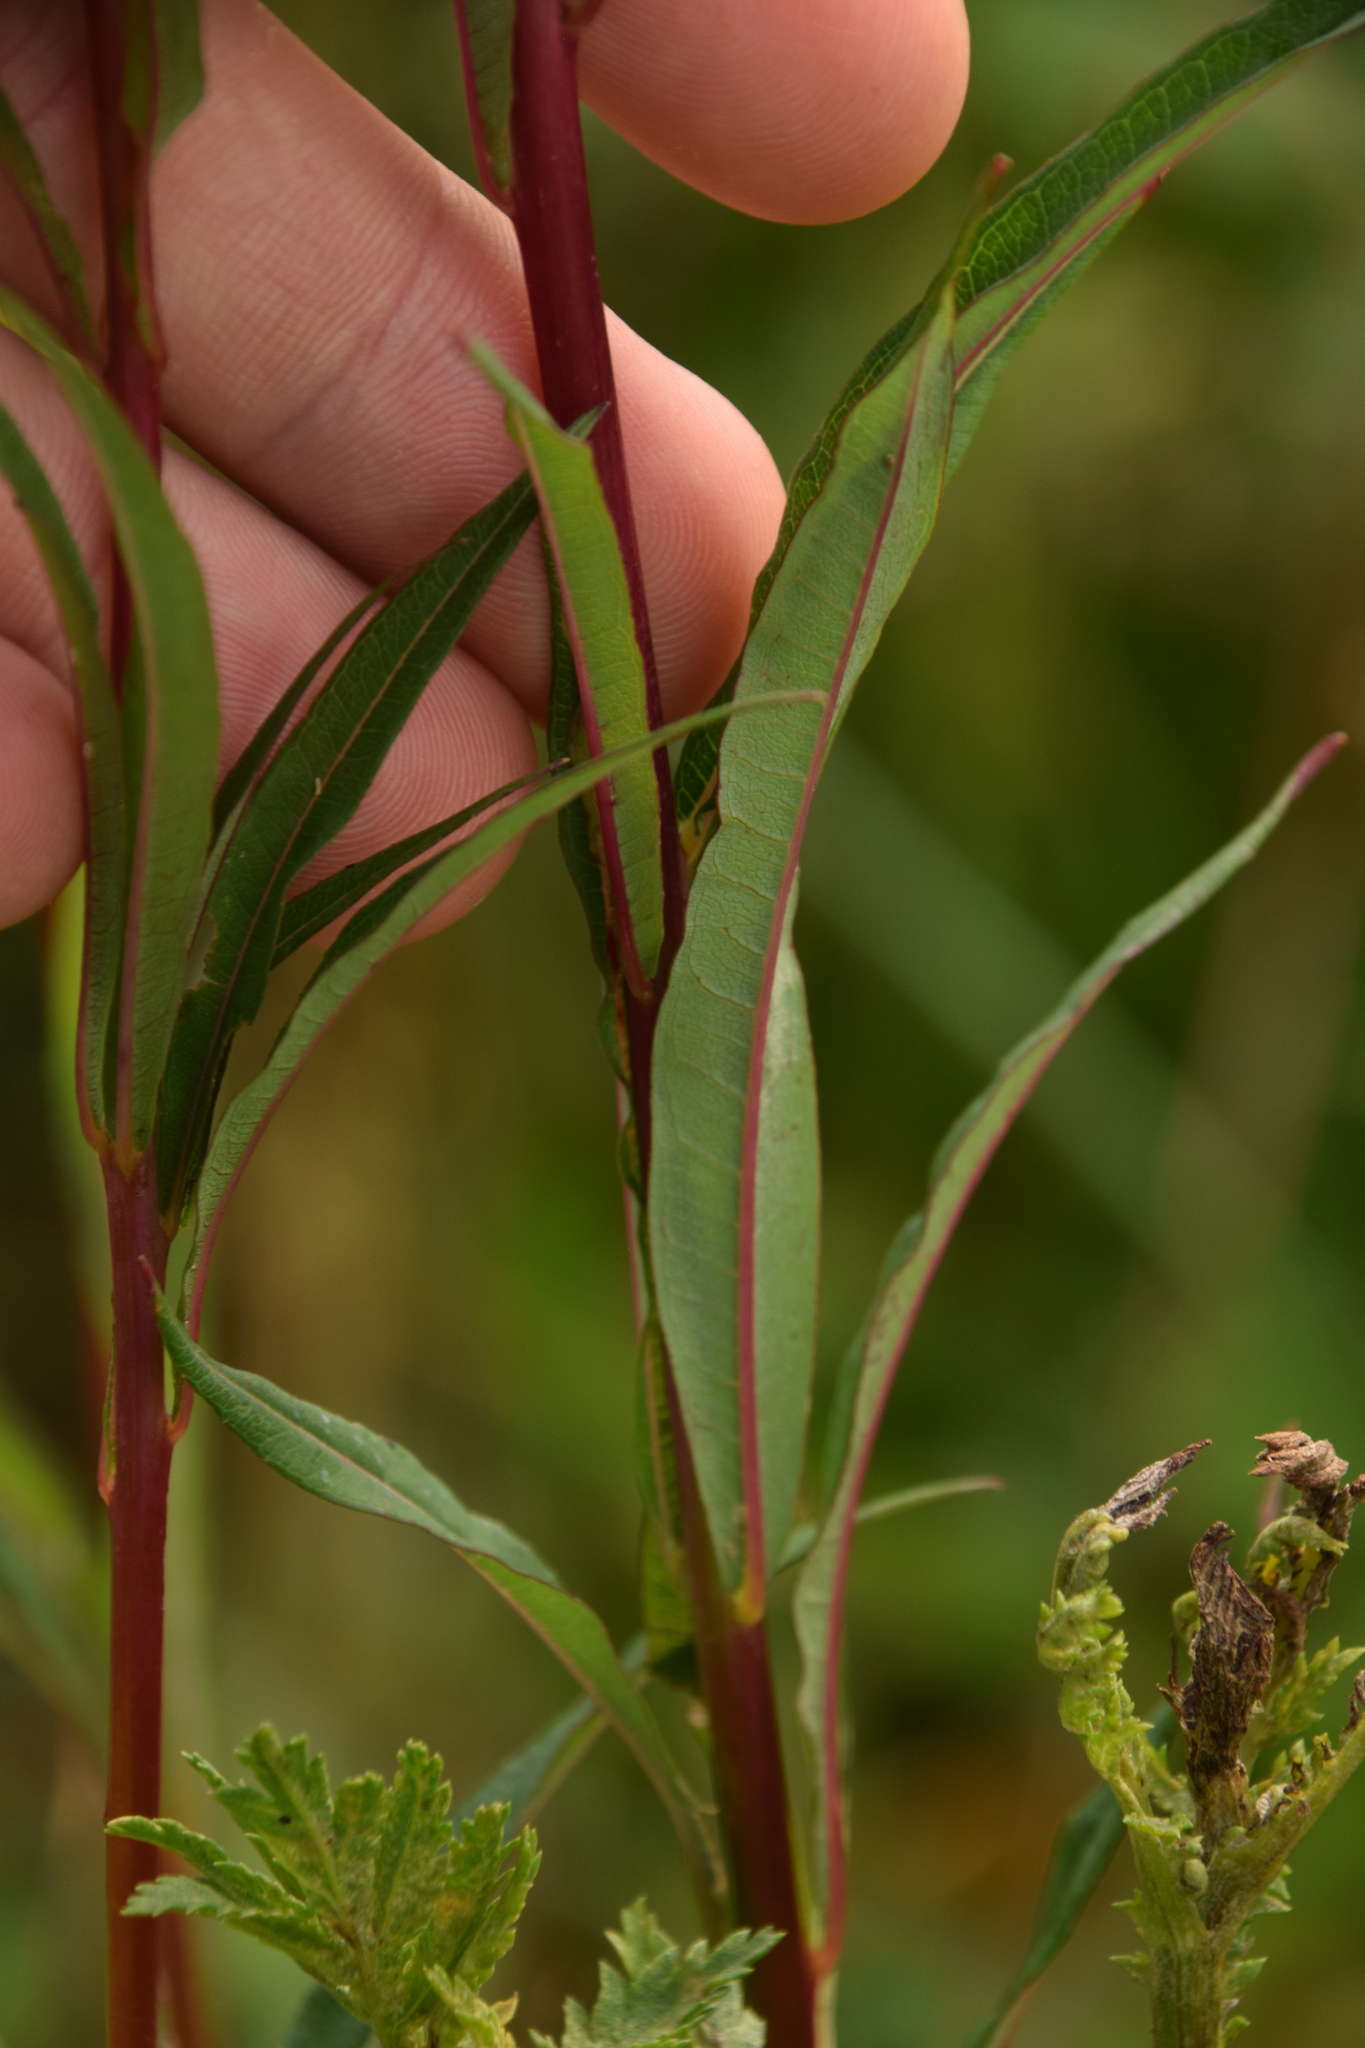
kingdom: Plantae
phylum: Tracheophyta
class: Magnoliopsida
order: Myrtales
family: Onagraceae
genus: Chamaenerion
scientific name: Chamaenerion angustifolium
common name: Fireweed
